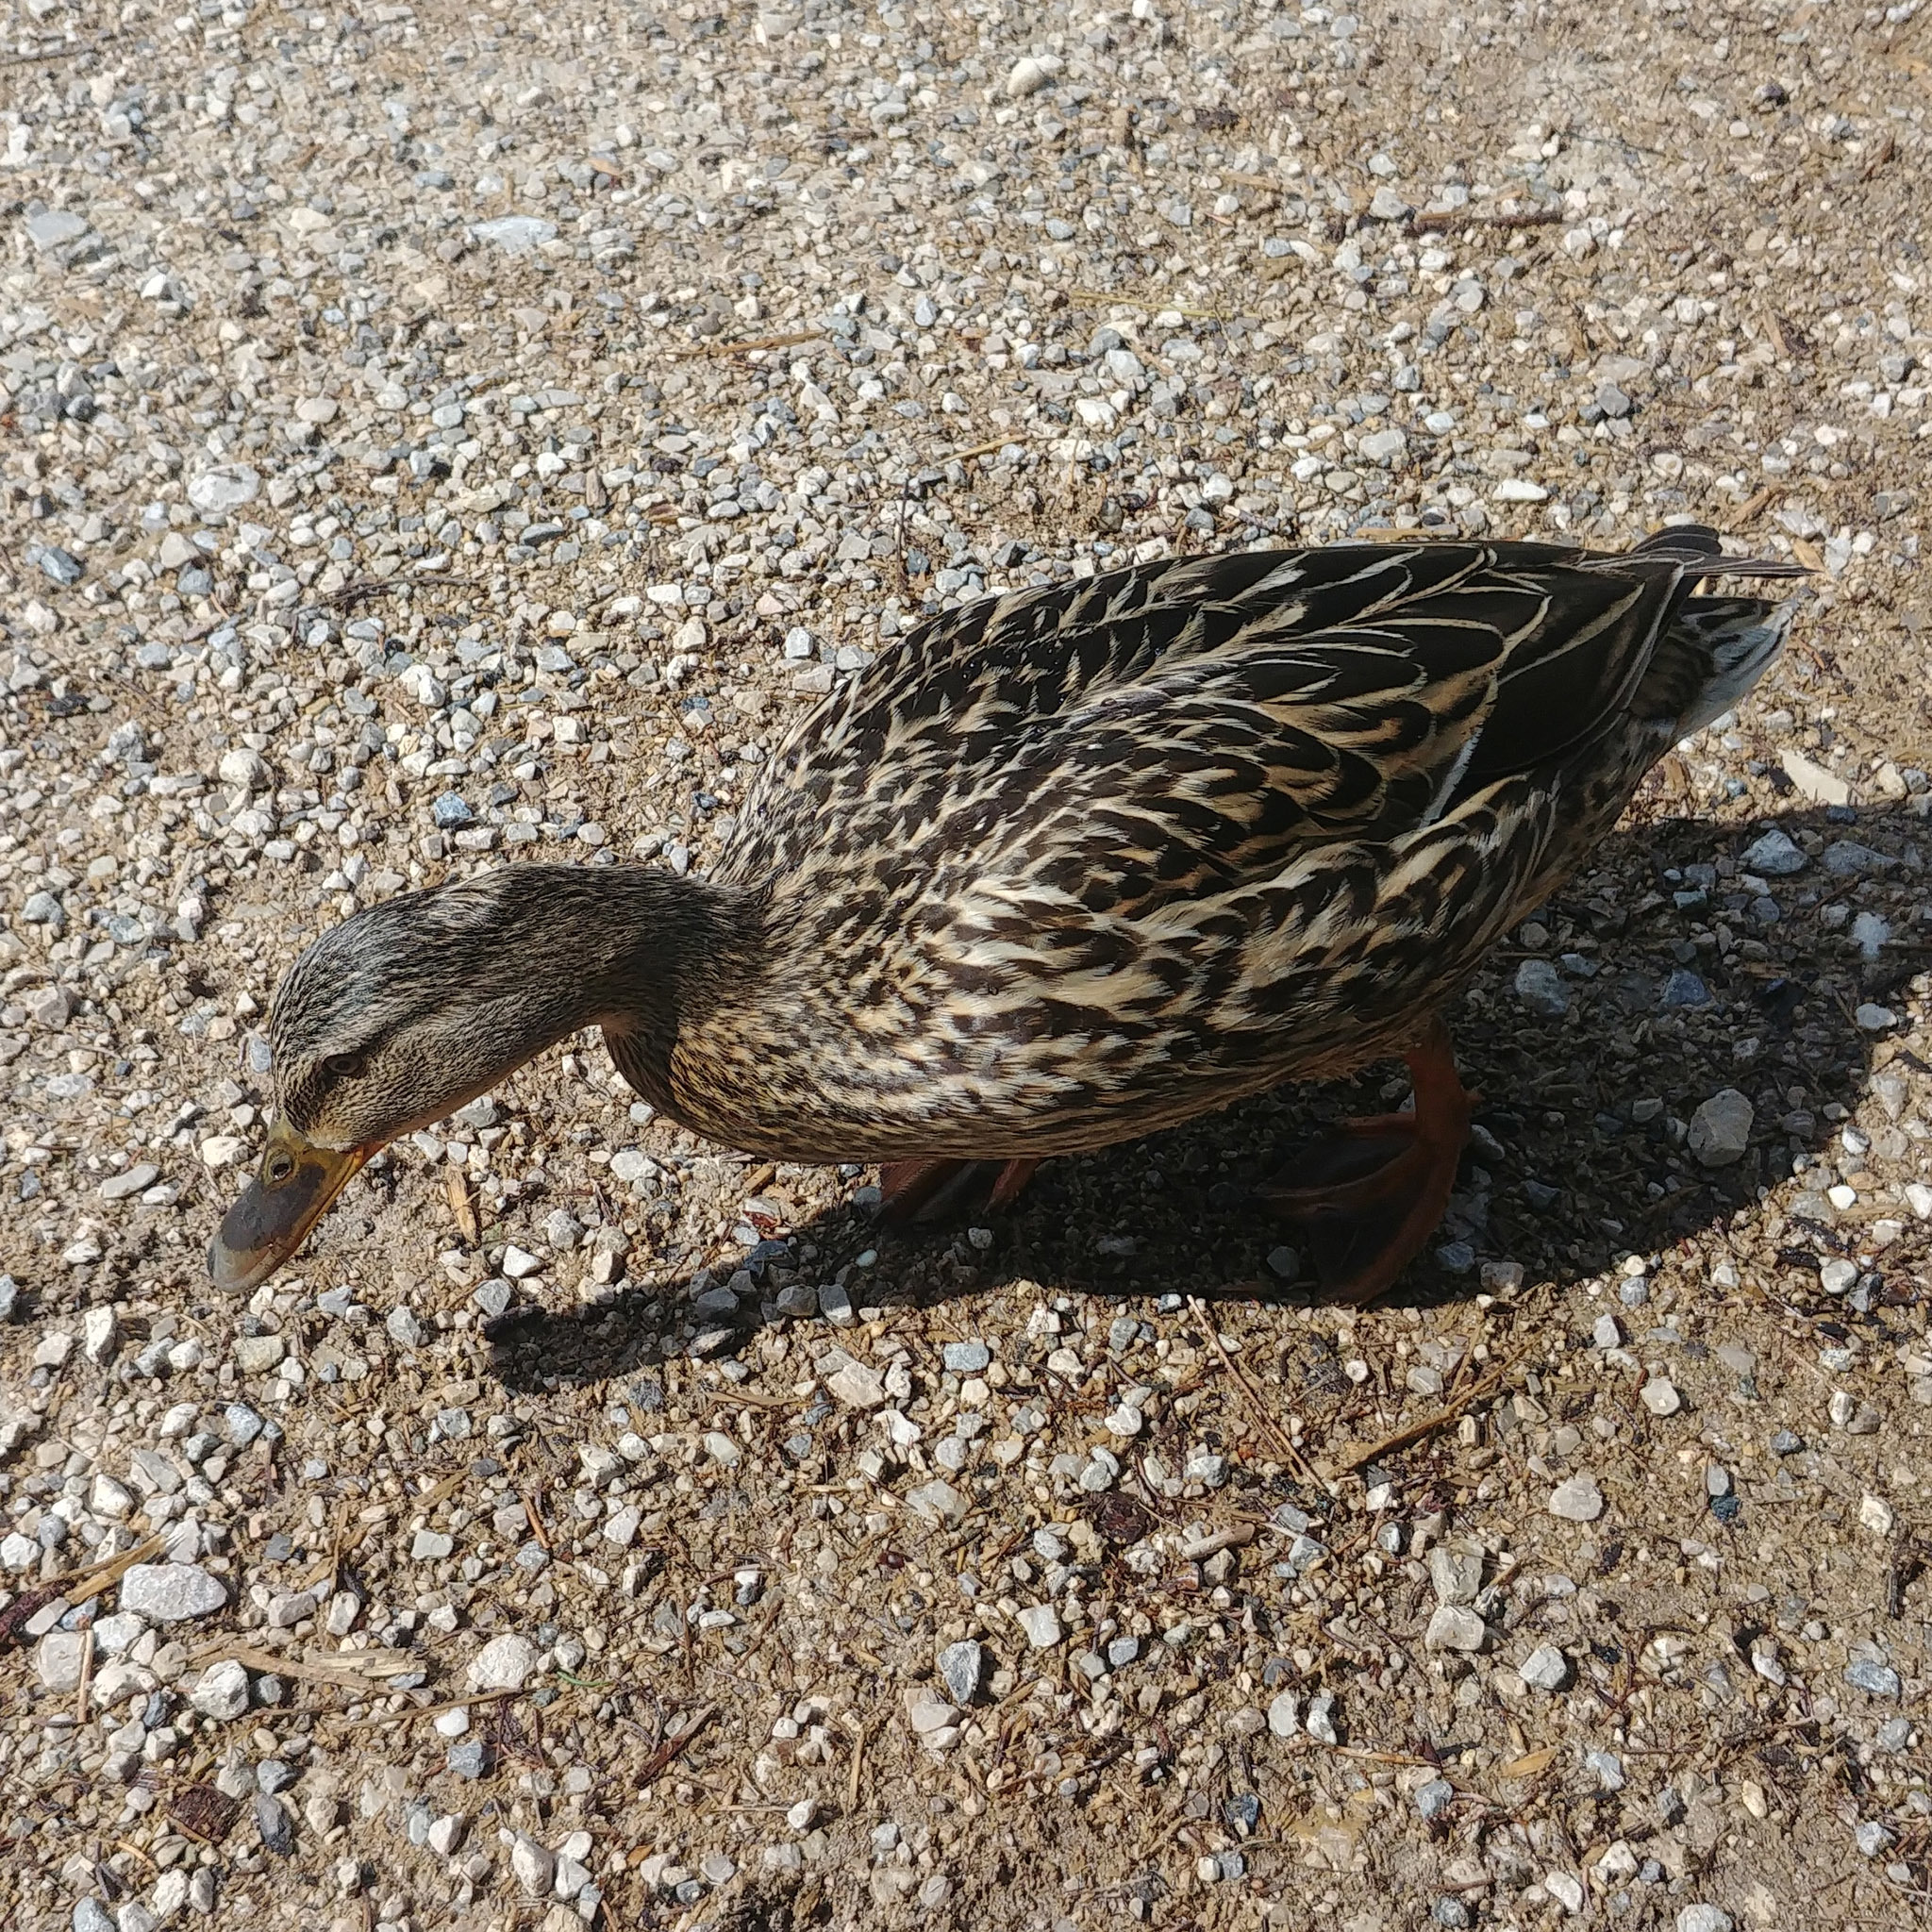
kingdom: Animalia
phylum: Chordata
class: Aves
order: Anseriformes
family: Anatidae
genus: Anas
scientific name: Anas platyrhynchos
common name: Mallard
